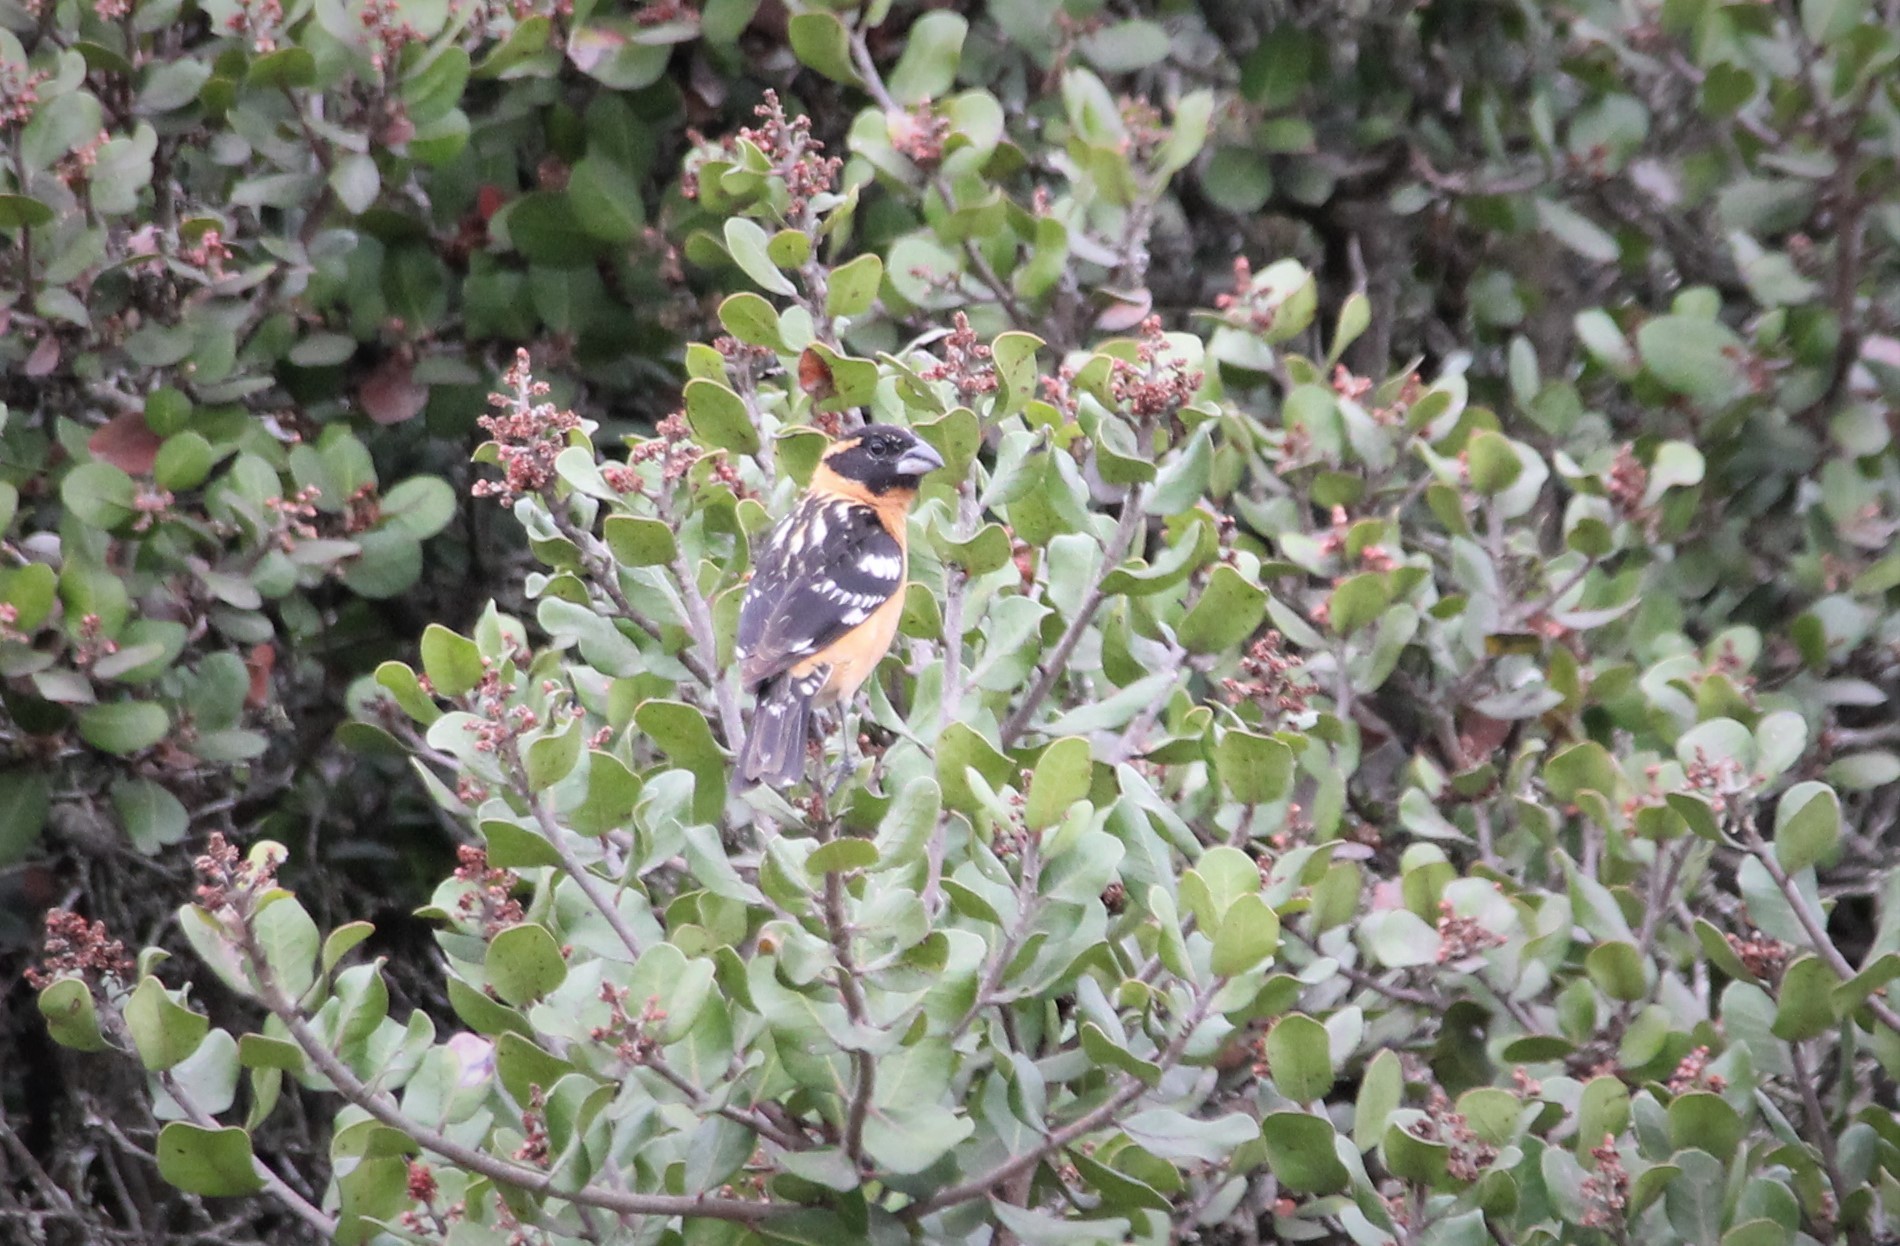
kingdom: Animalia
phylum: Chordata
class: Aves
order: Passeriformes
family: Cardinalidae
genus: Pheucticus
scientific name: Pheucticus melanocephalus
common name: Black-headed grosbeak
